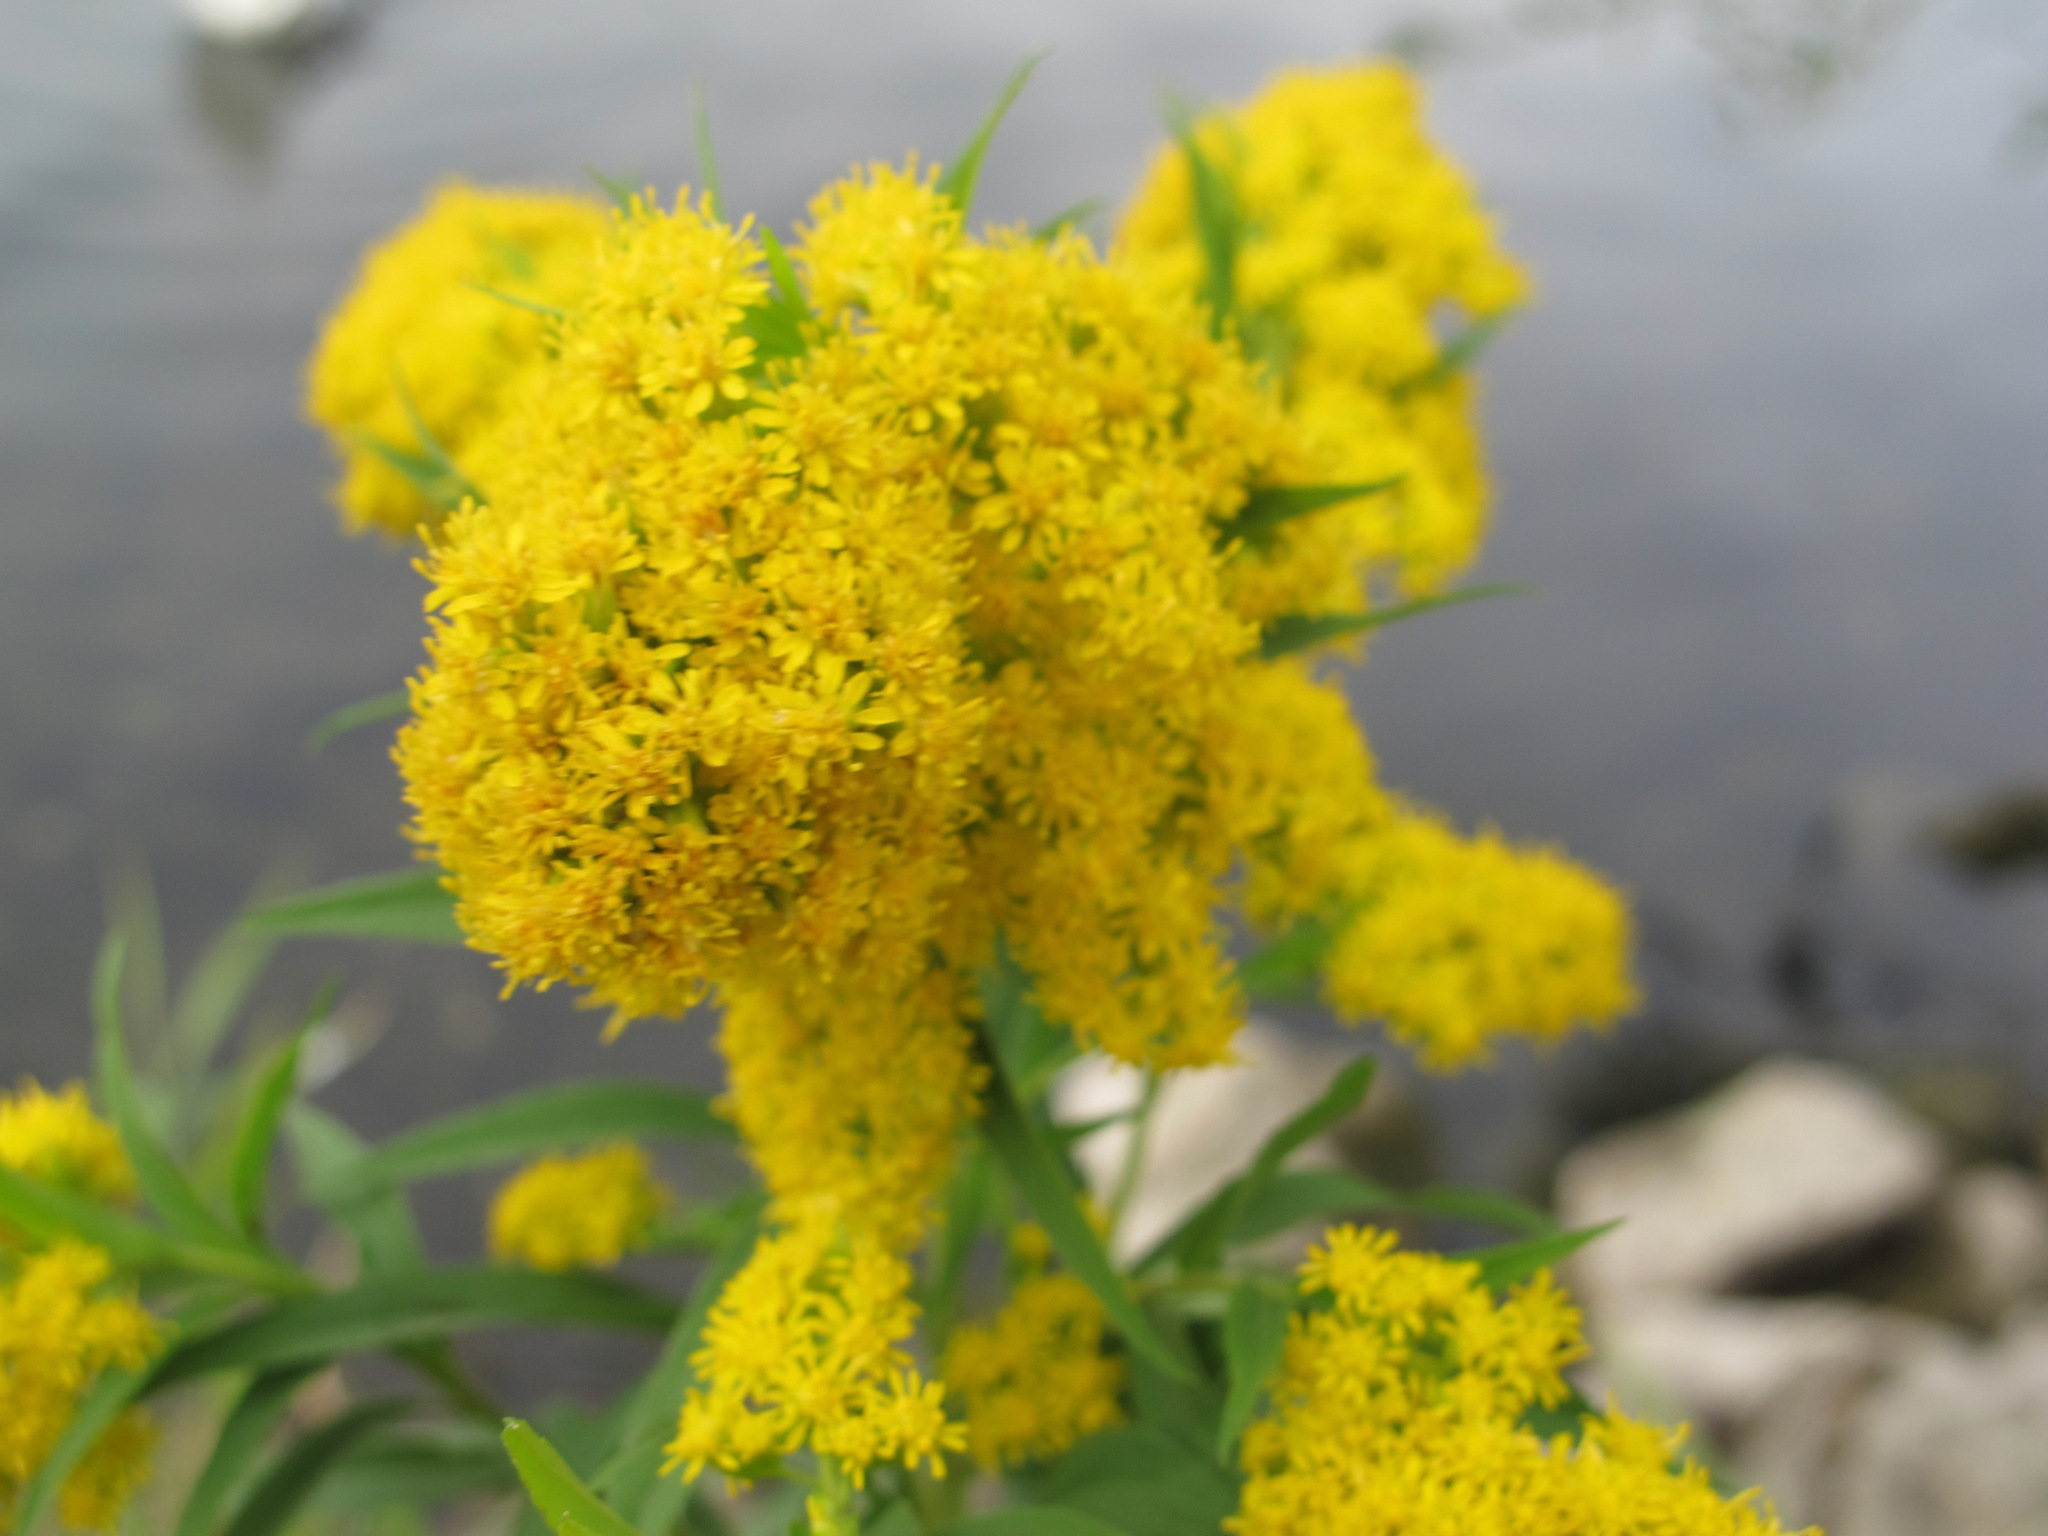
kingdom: Plantae
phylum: Tracheophyta
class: Magnoliopsida
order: Asterales
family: Asteraceae
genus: Solidago
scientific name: Solidago gigantea
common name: Giant goldenrod
